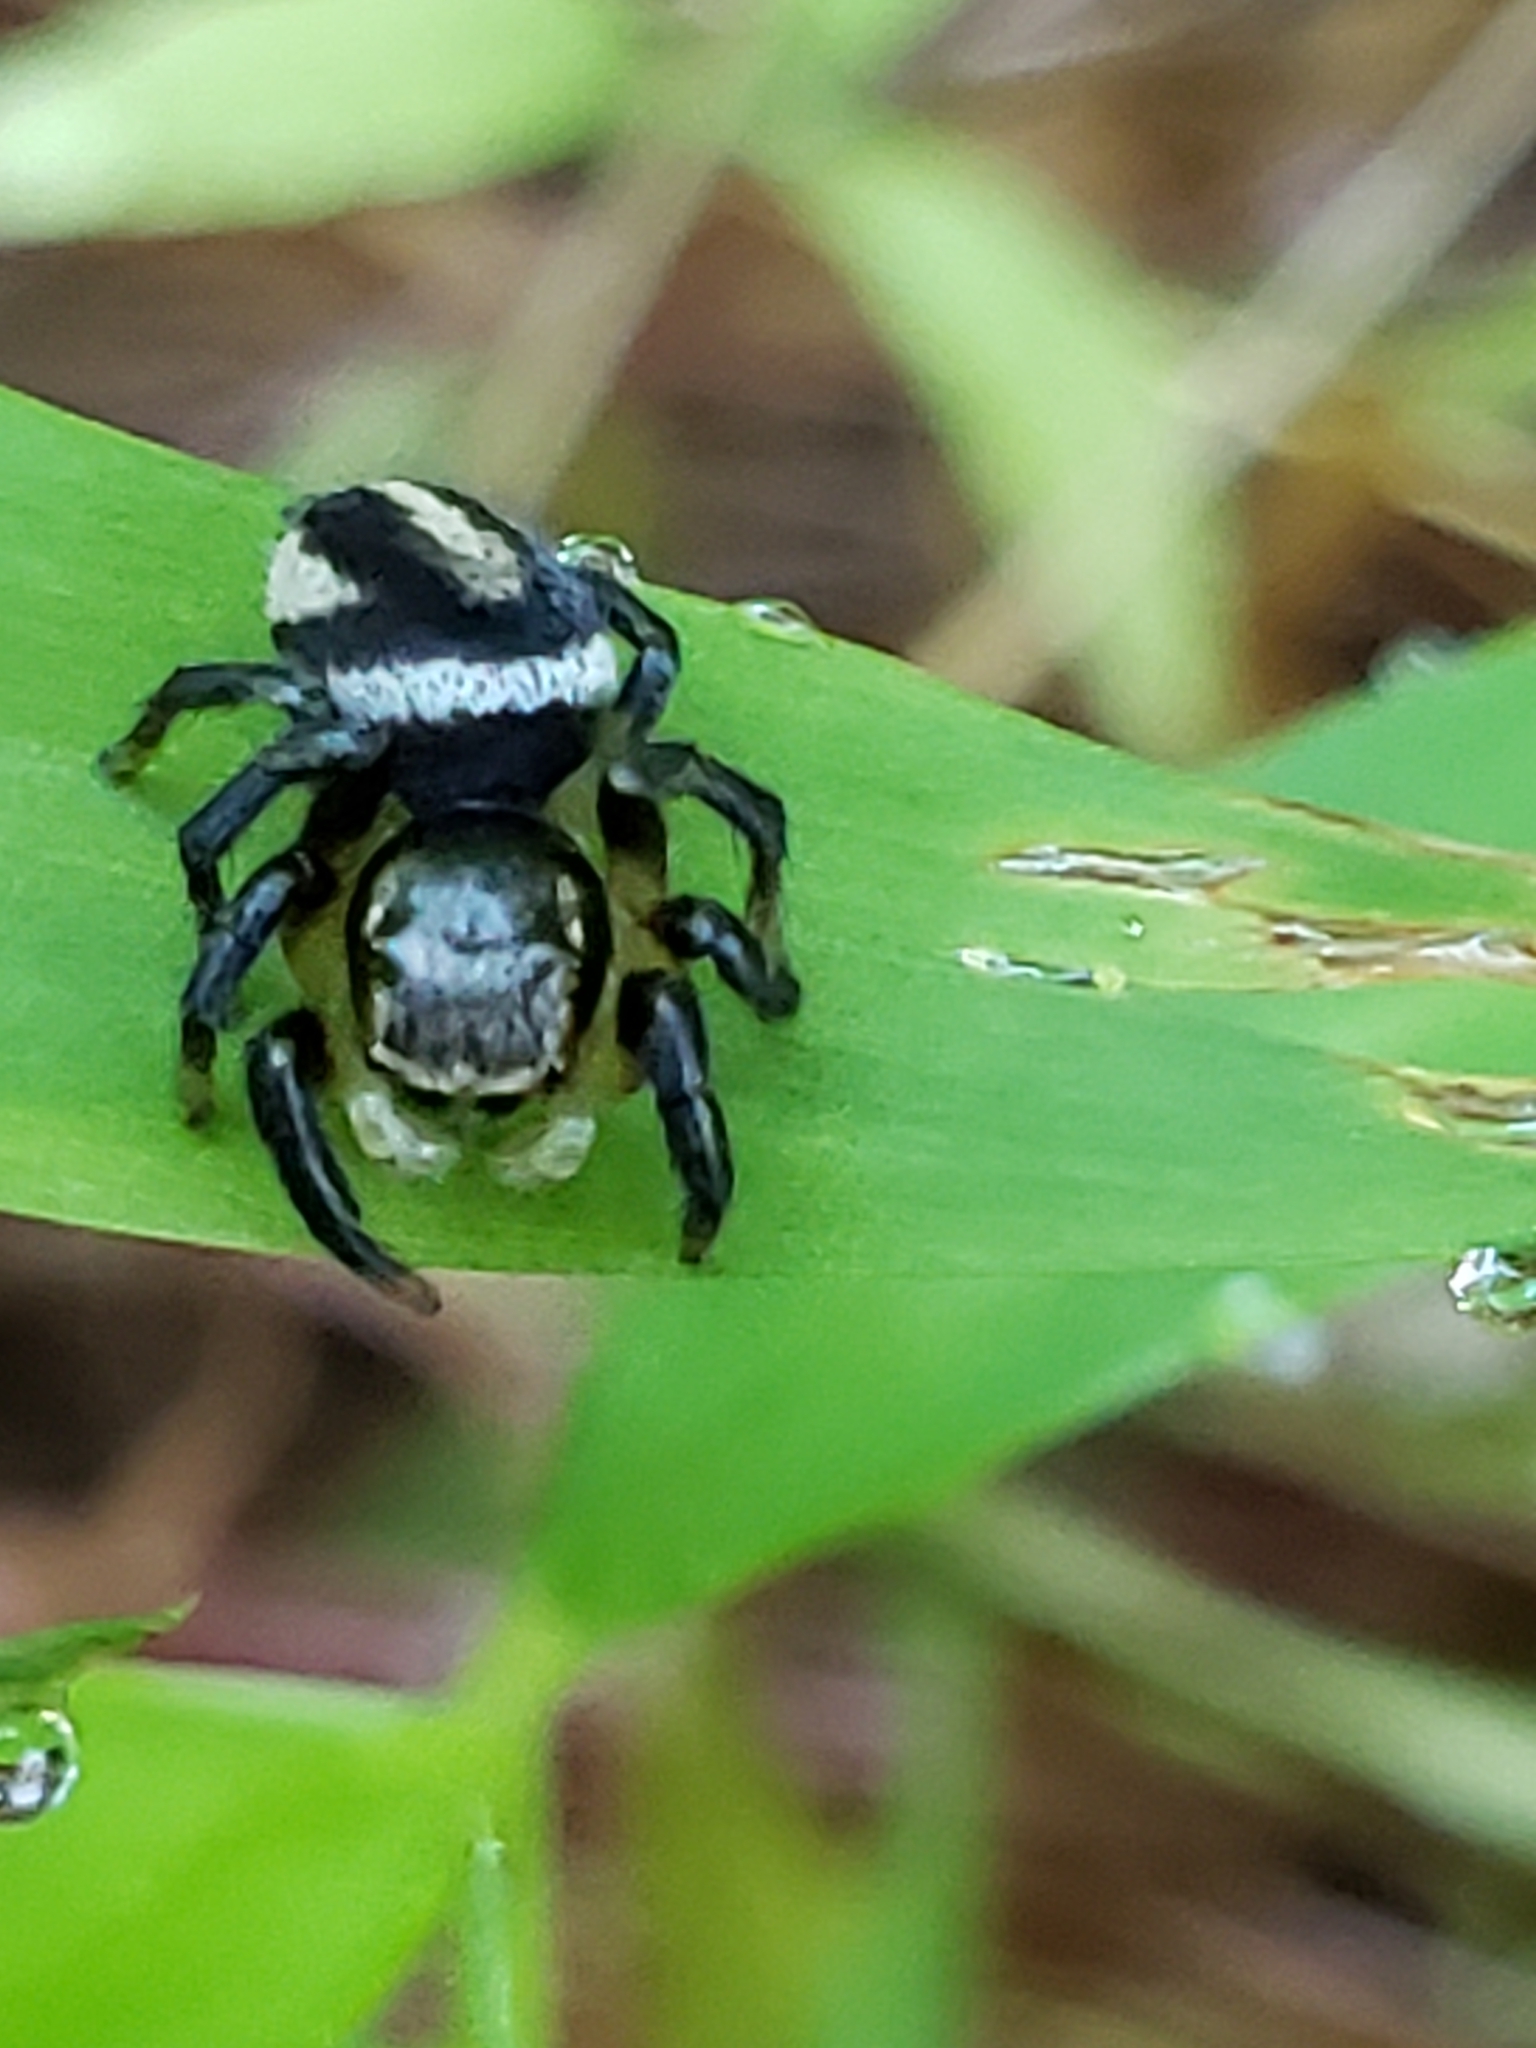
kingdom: Animalia
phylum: Arthropoda
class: Arachnida
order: Araneae
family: Salticidae
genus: Habronattus
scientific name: Habronattus decorus
